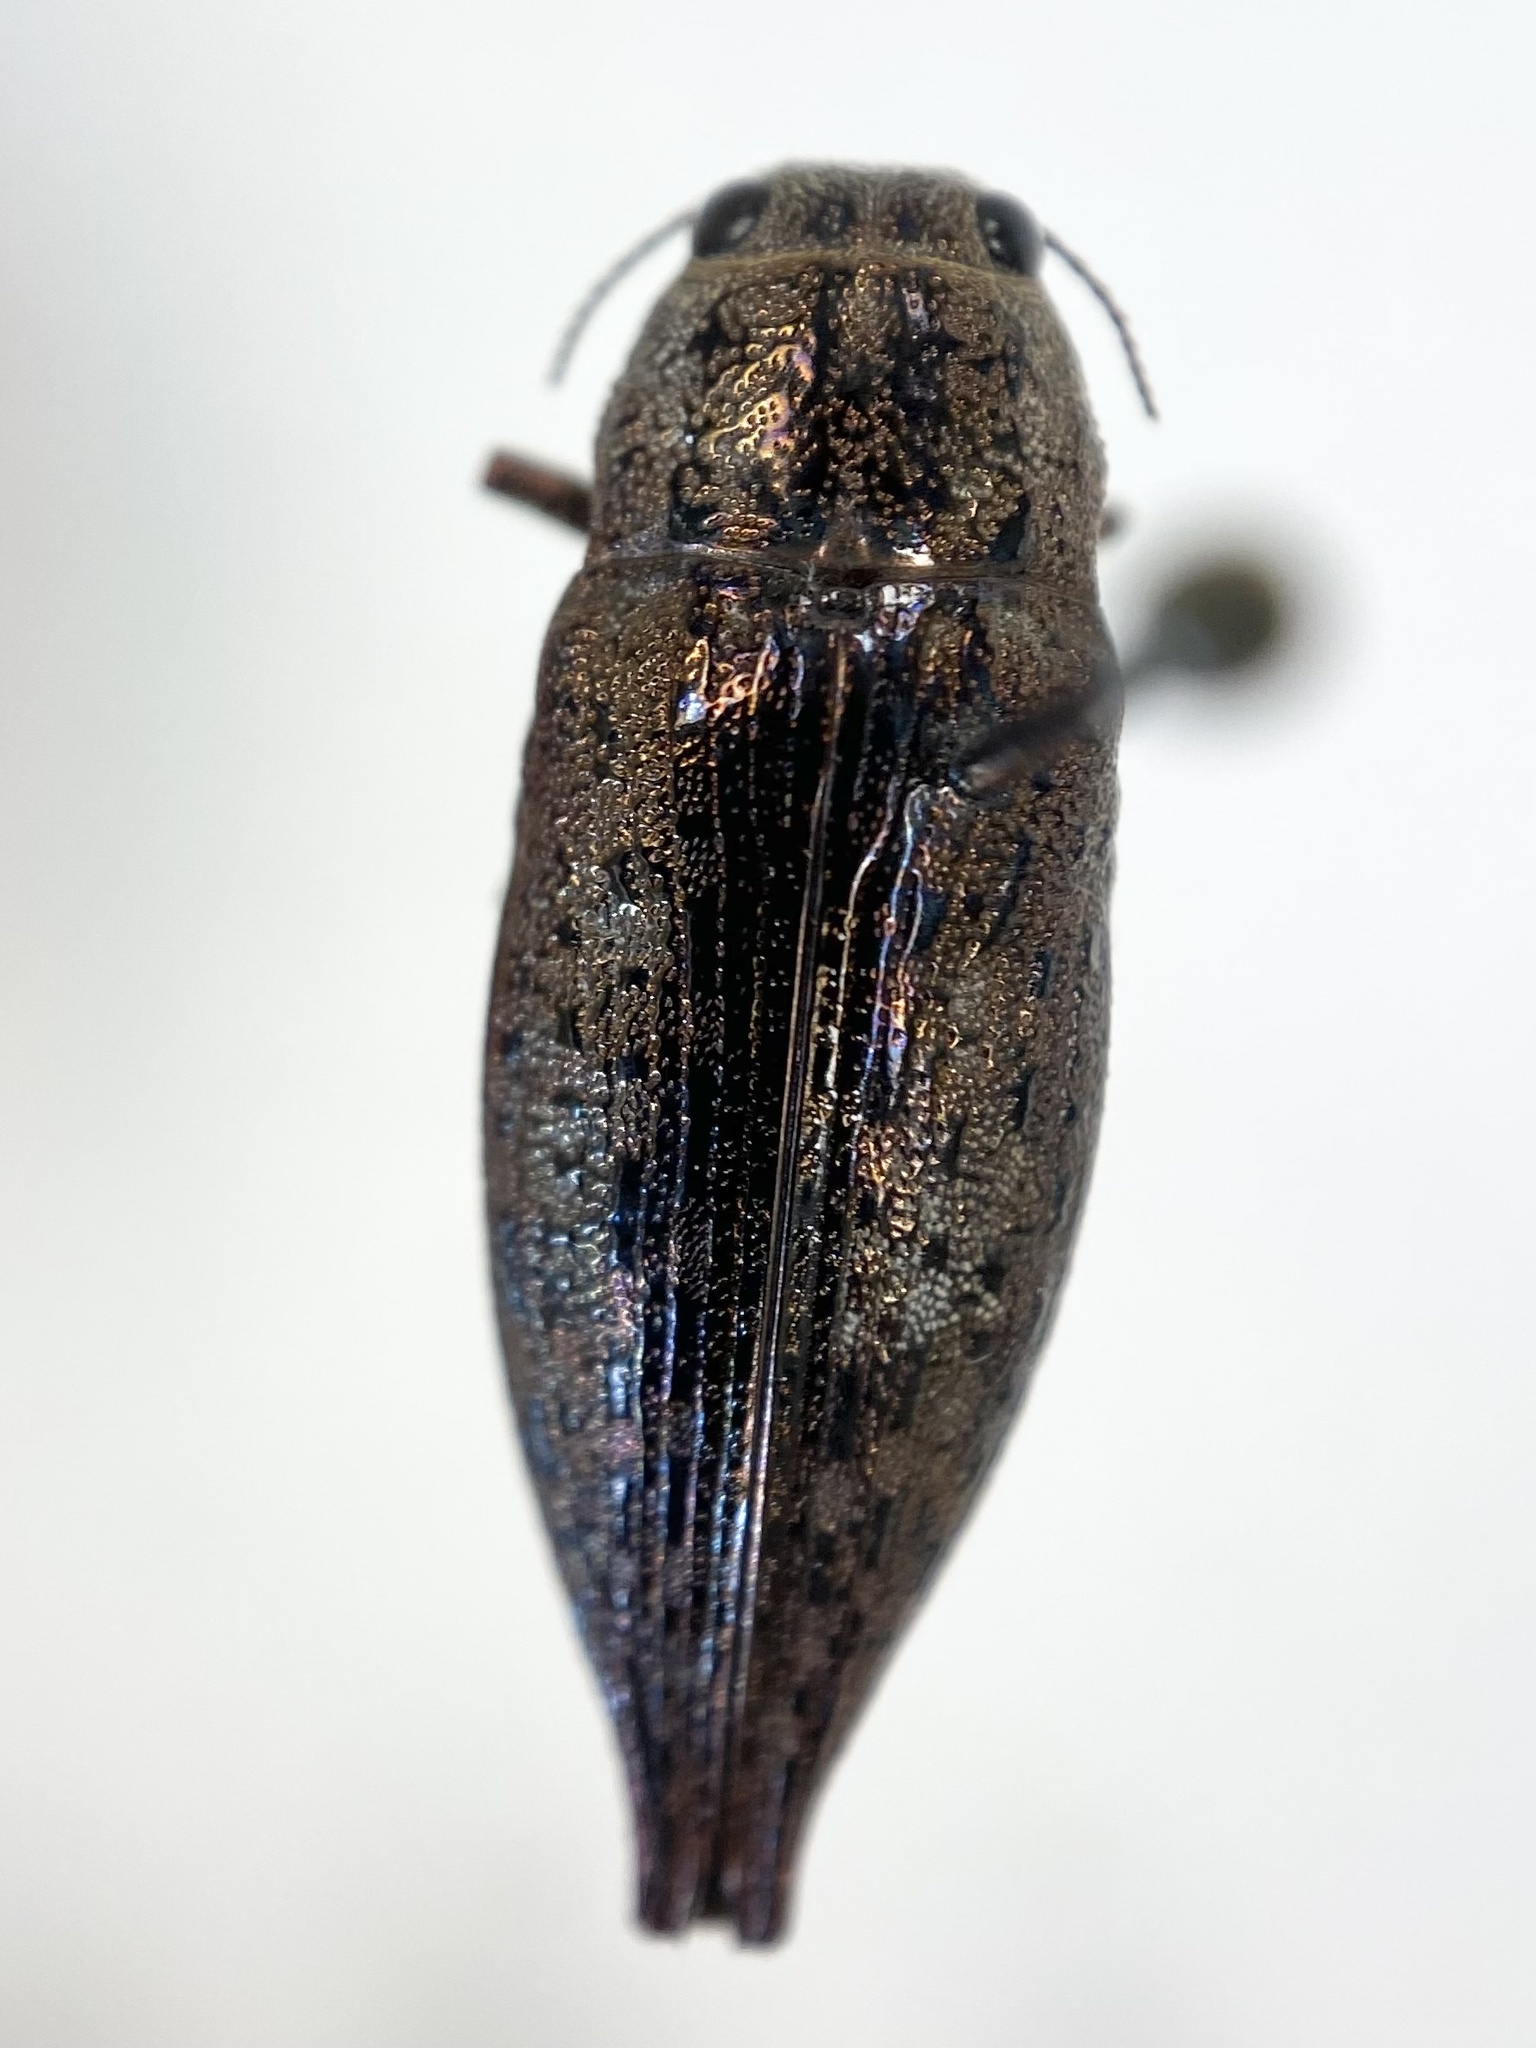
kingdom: Animalia
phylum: Arthropoda
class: Insecta
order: Coleoptera
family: Buprestidae
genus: Dicerca
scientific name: Dicerca divaricata
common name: Flat-headed hardwood borer
